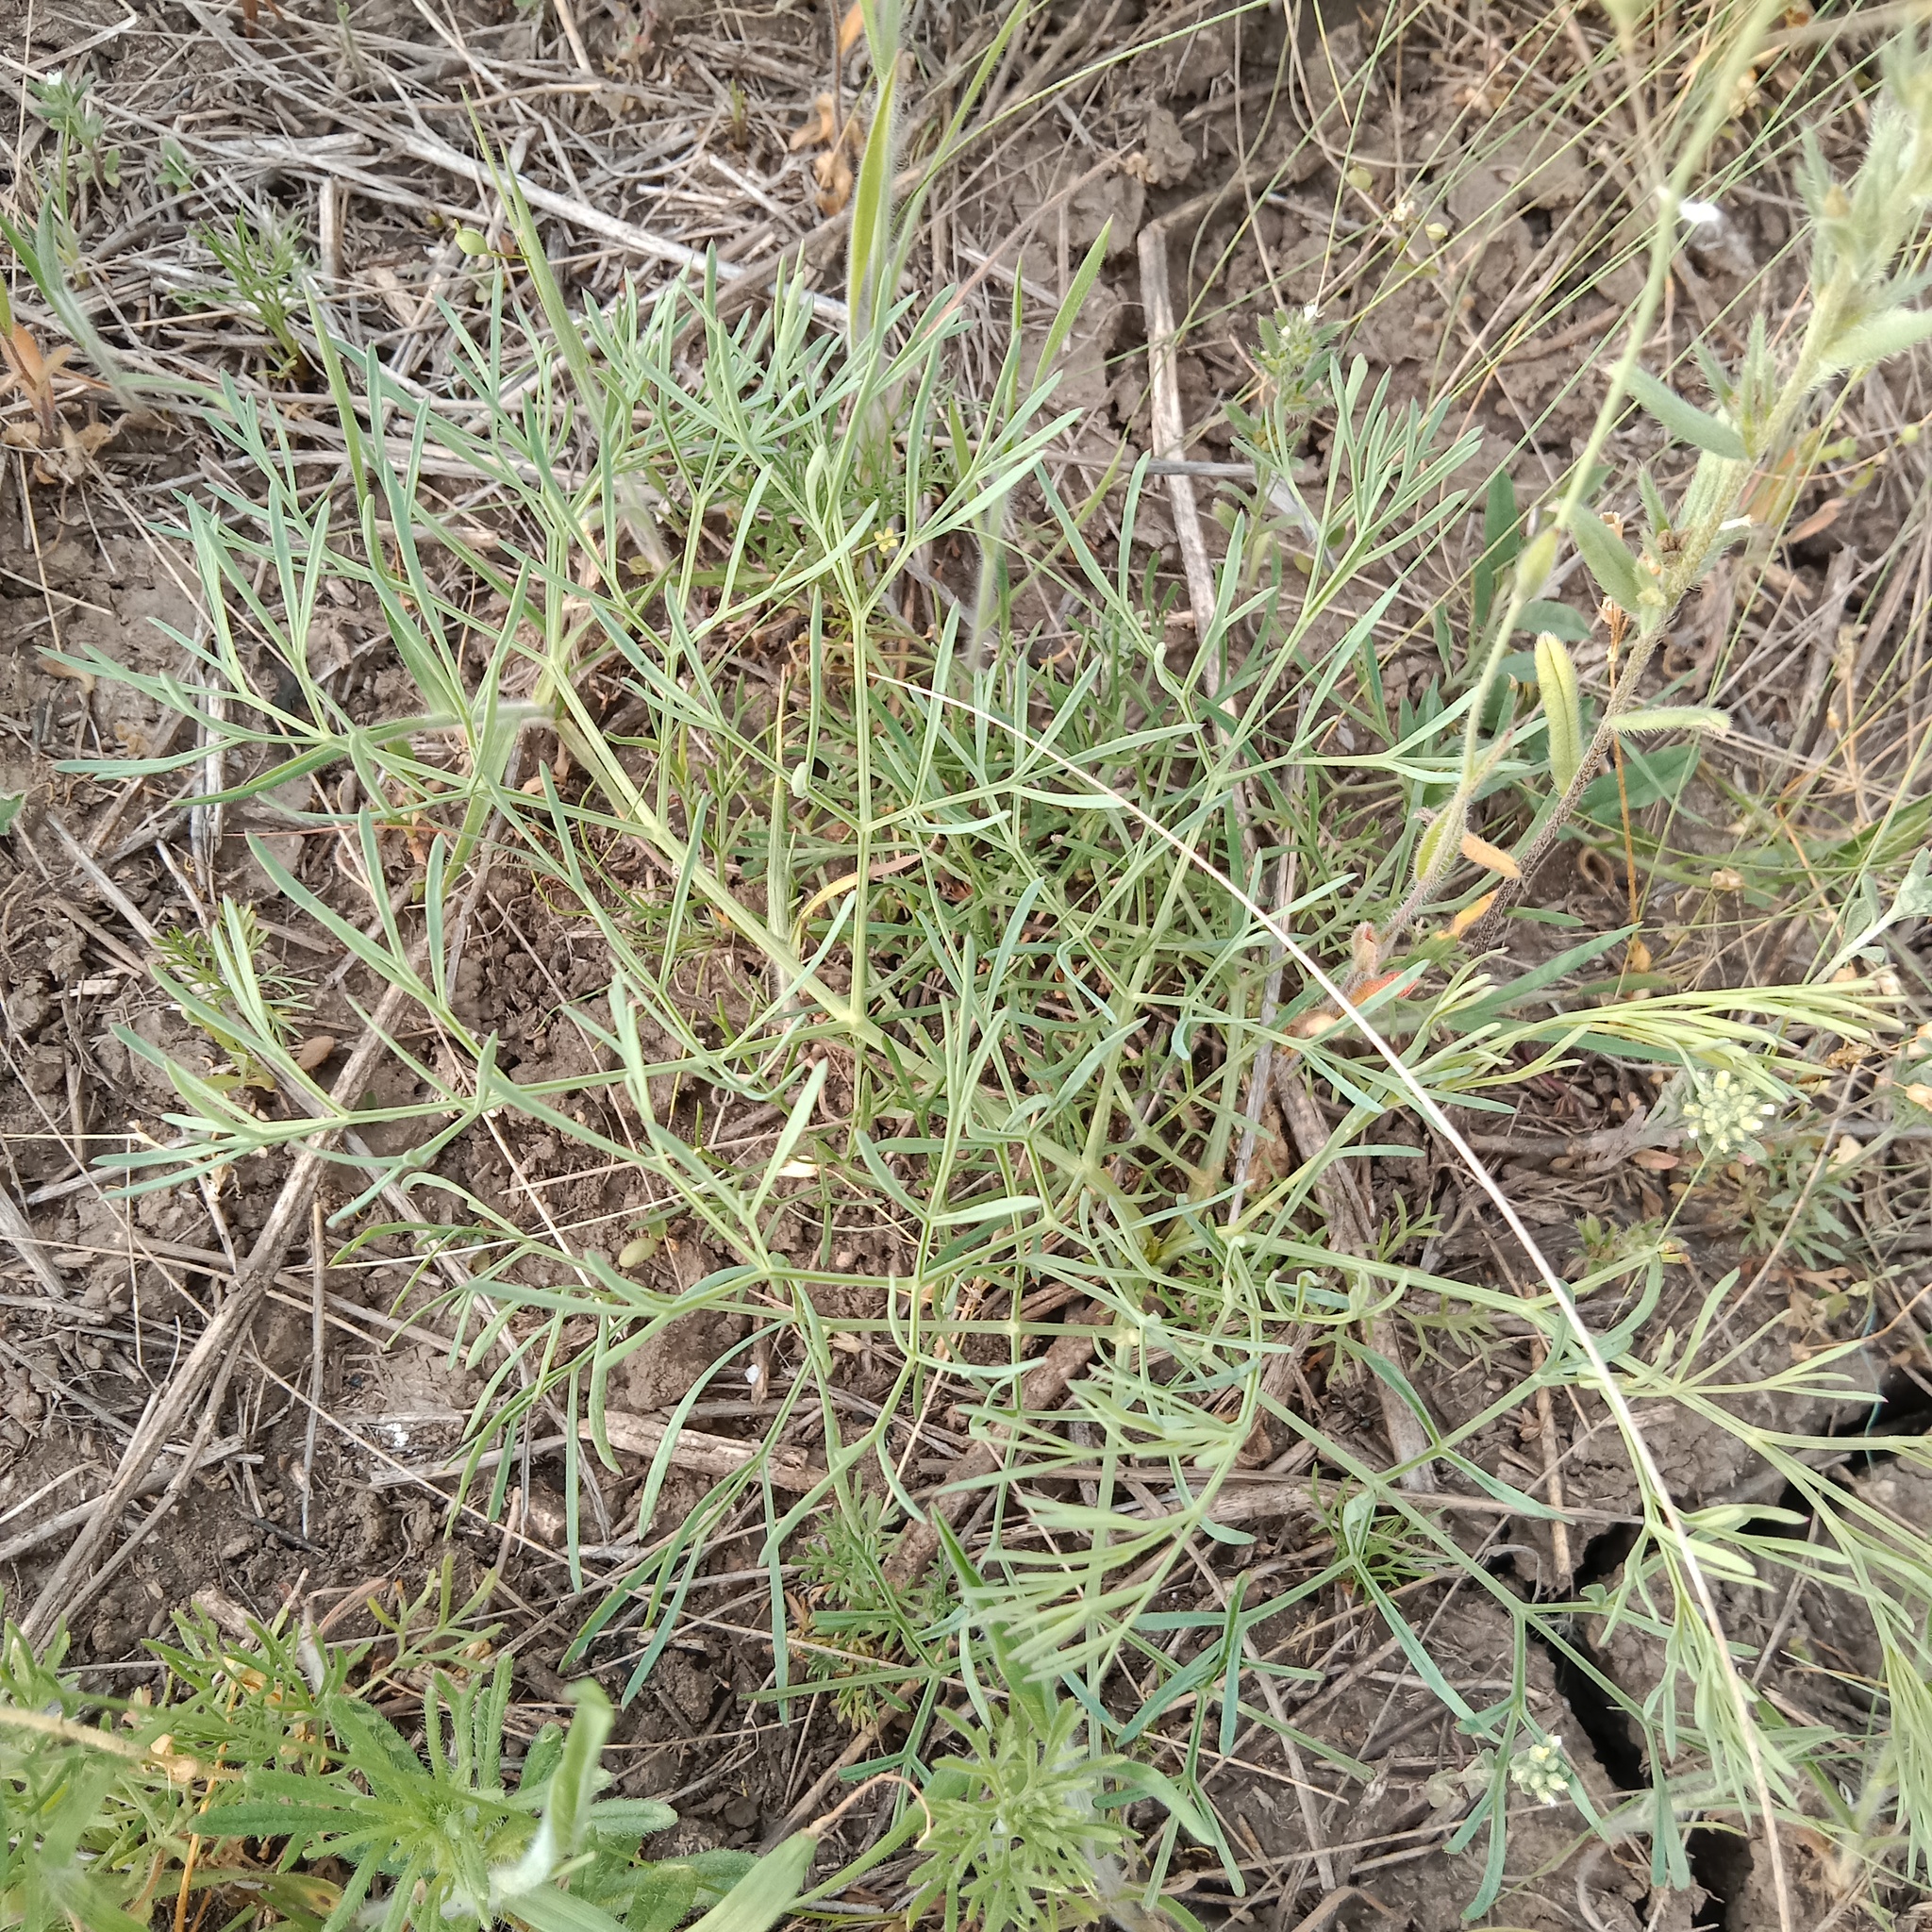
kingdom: Plantae
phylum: Tracheophyta
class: Magnoliopsida
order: Apiales
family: Apiaceae
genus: Seseli
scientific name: Seseli arenarium
